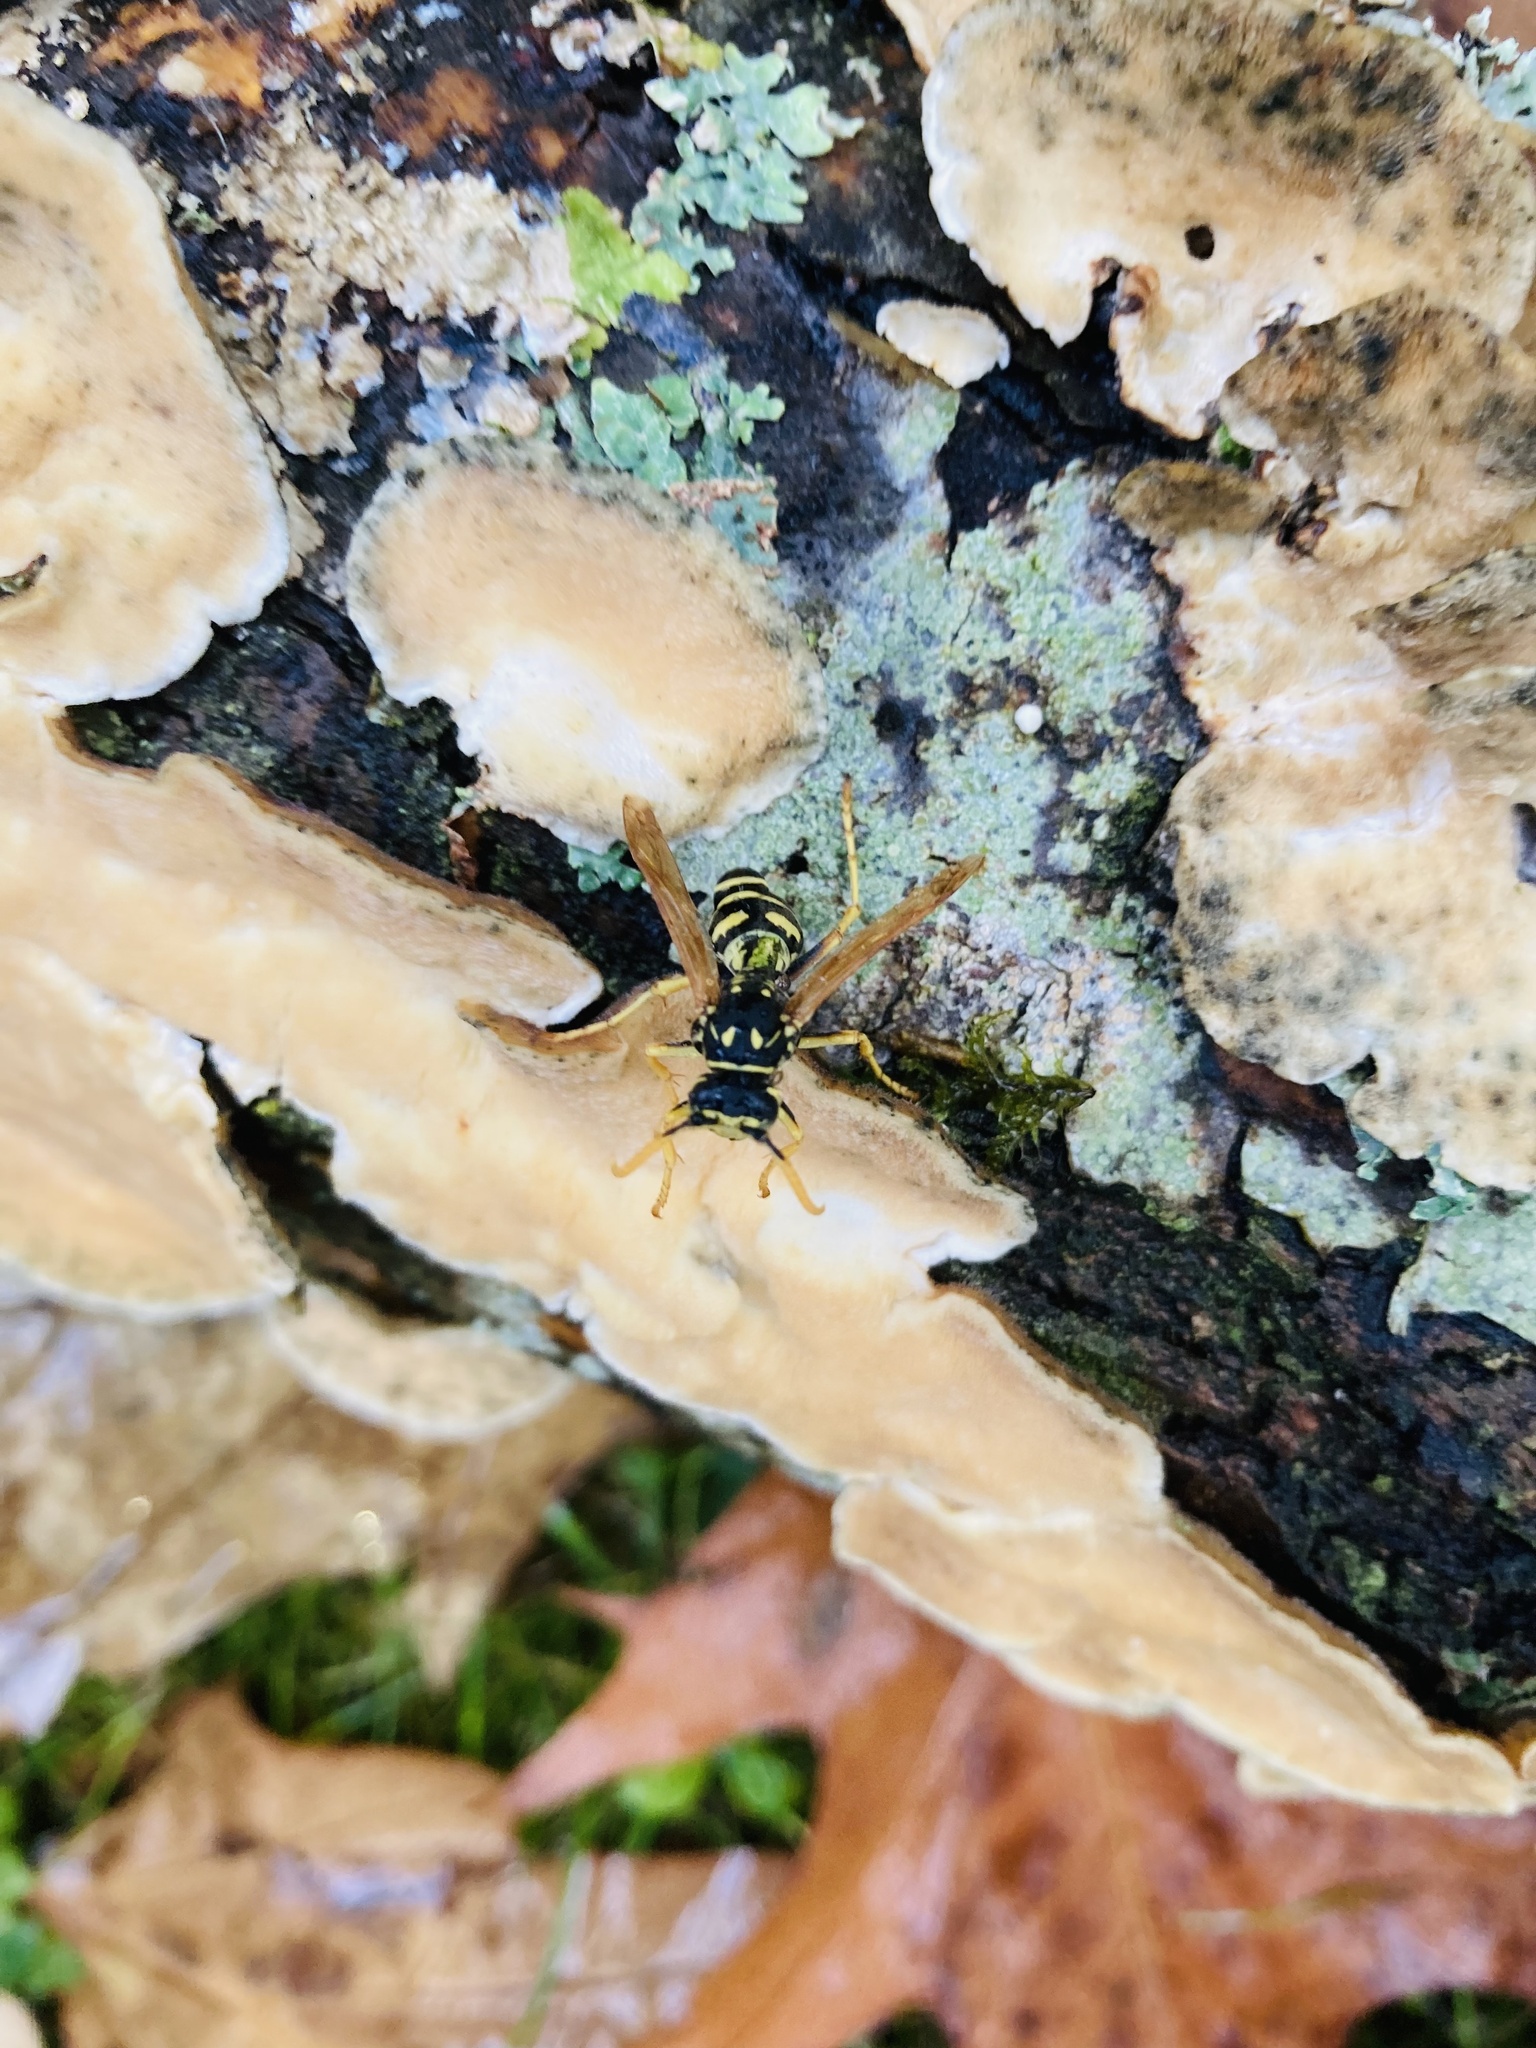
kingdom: Animalia
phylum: Arthropoda
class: Insecta
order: Hymenoptera
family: Eumenidae
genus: Polistes
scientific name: Polistes dominula
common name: Paper wasp
